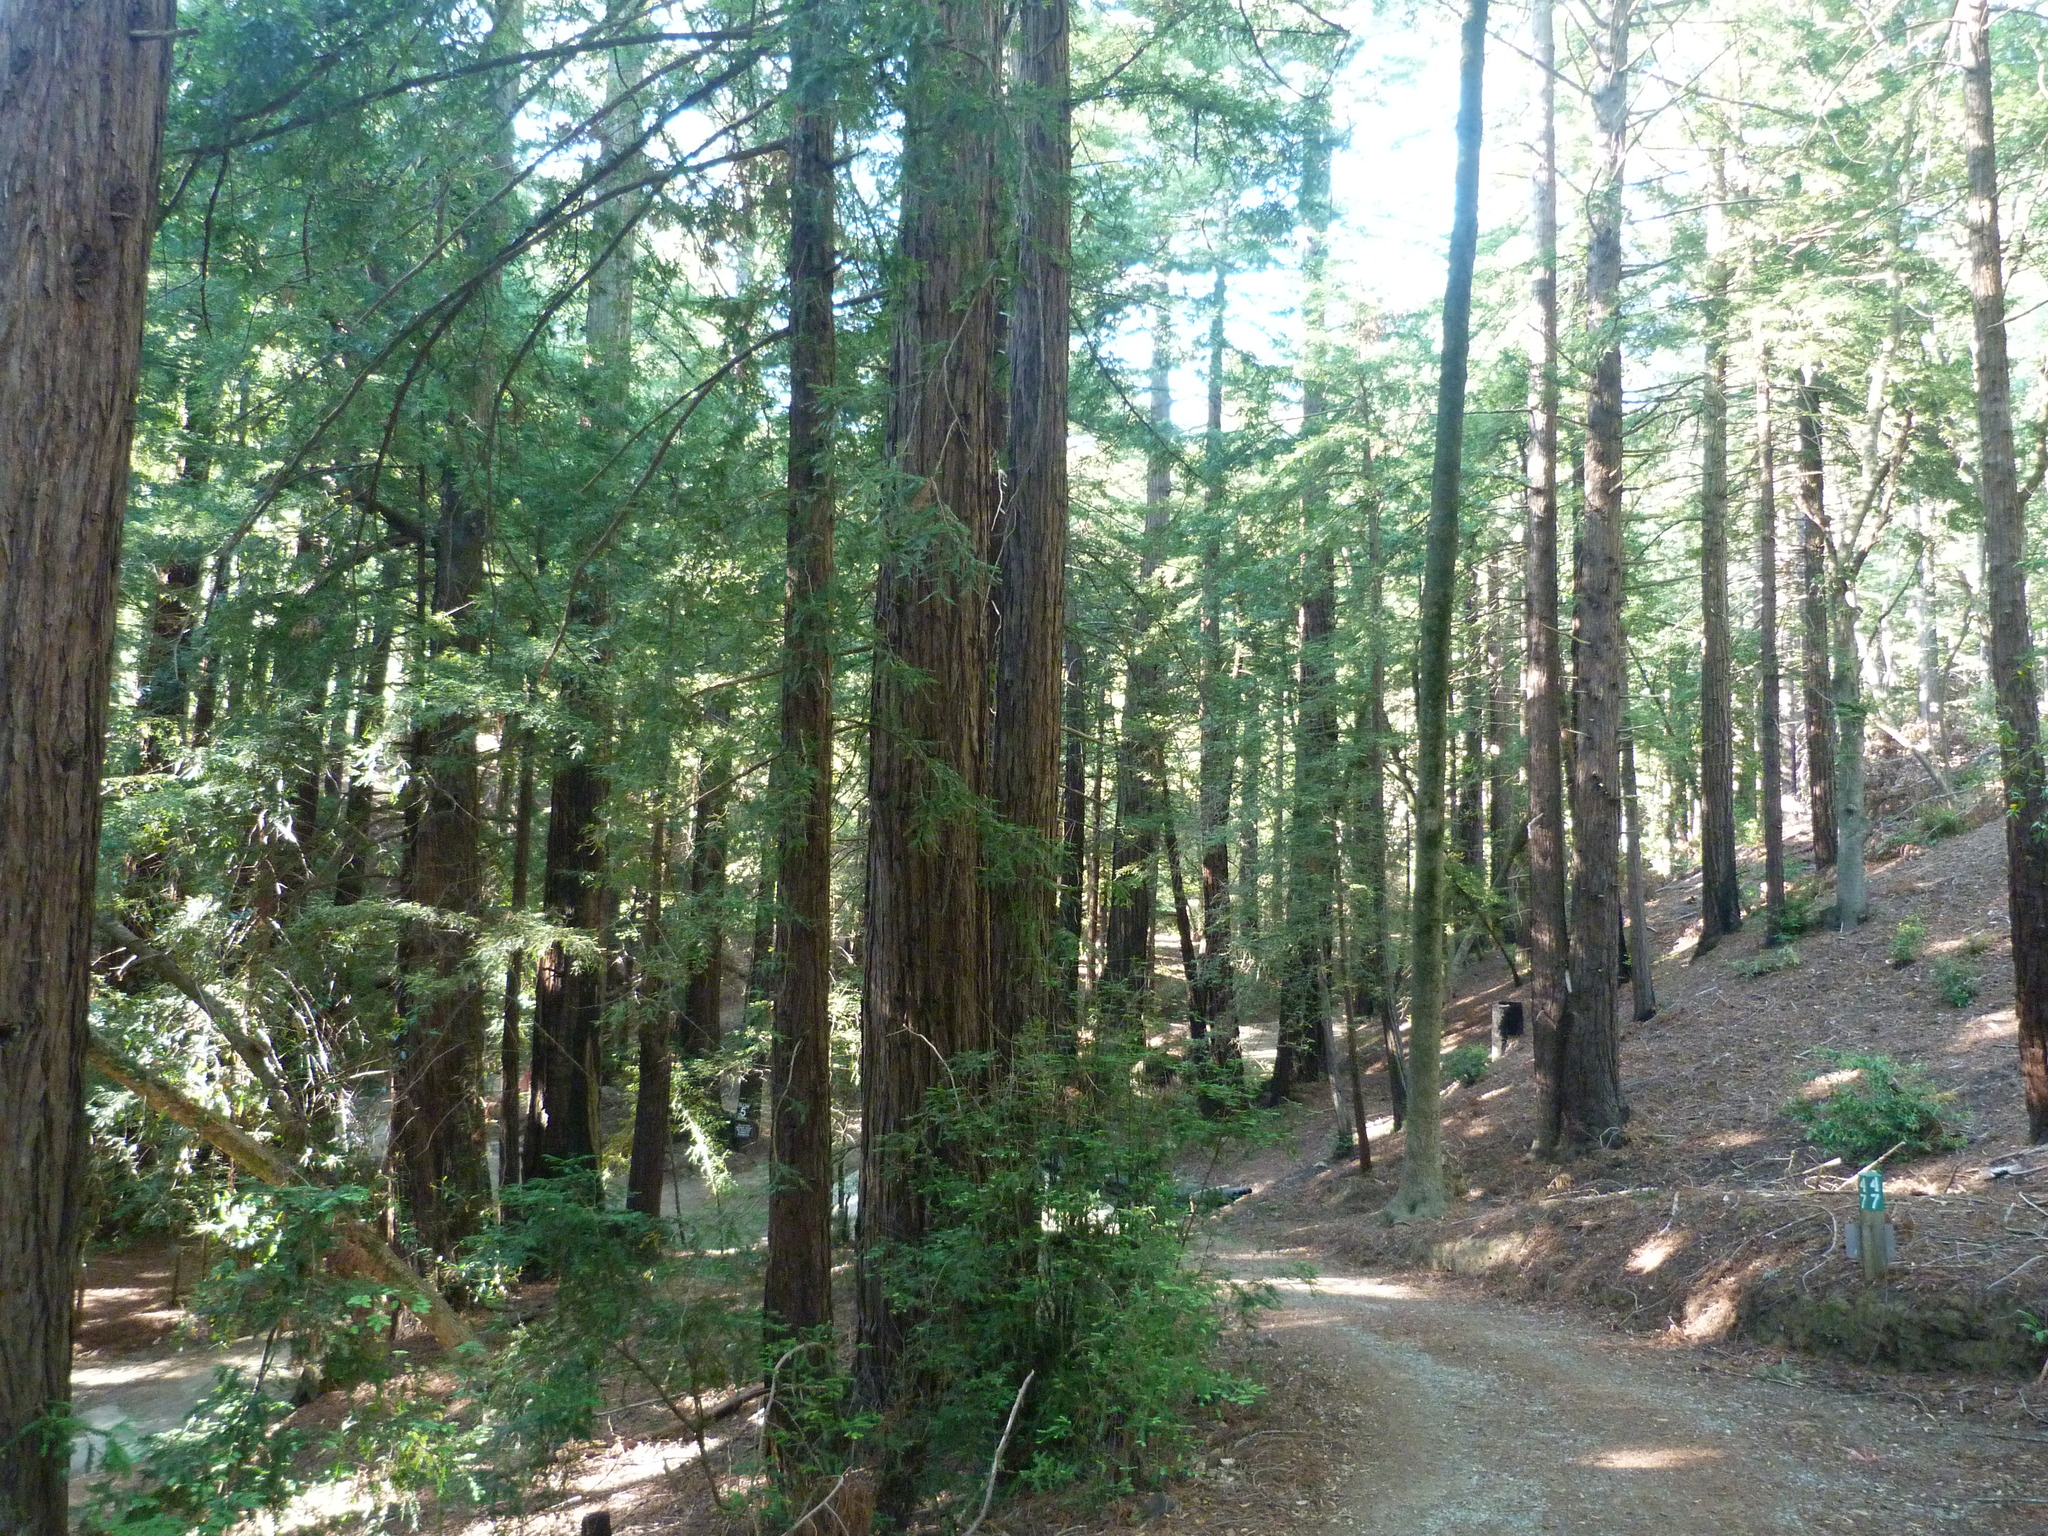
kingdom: Plantae
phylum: Tracheophyta
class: Pinopsida
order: Pinales
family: Cupressaceae
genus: Sequoia
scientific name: Sequoia sempervirens
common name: Coast redwood
